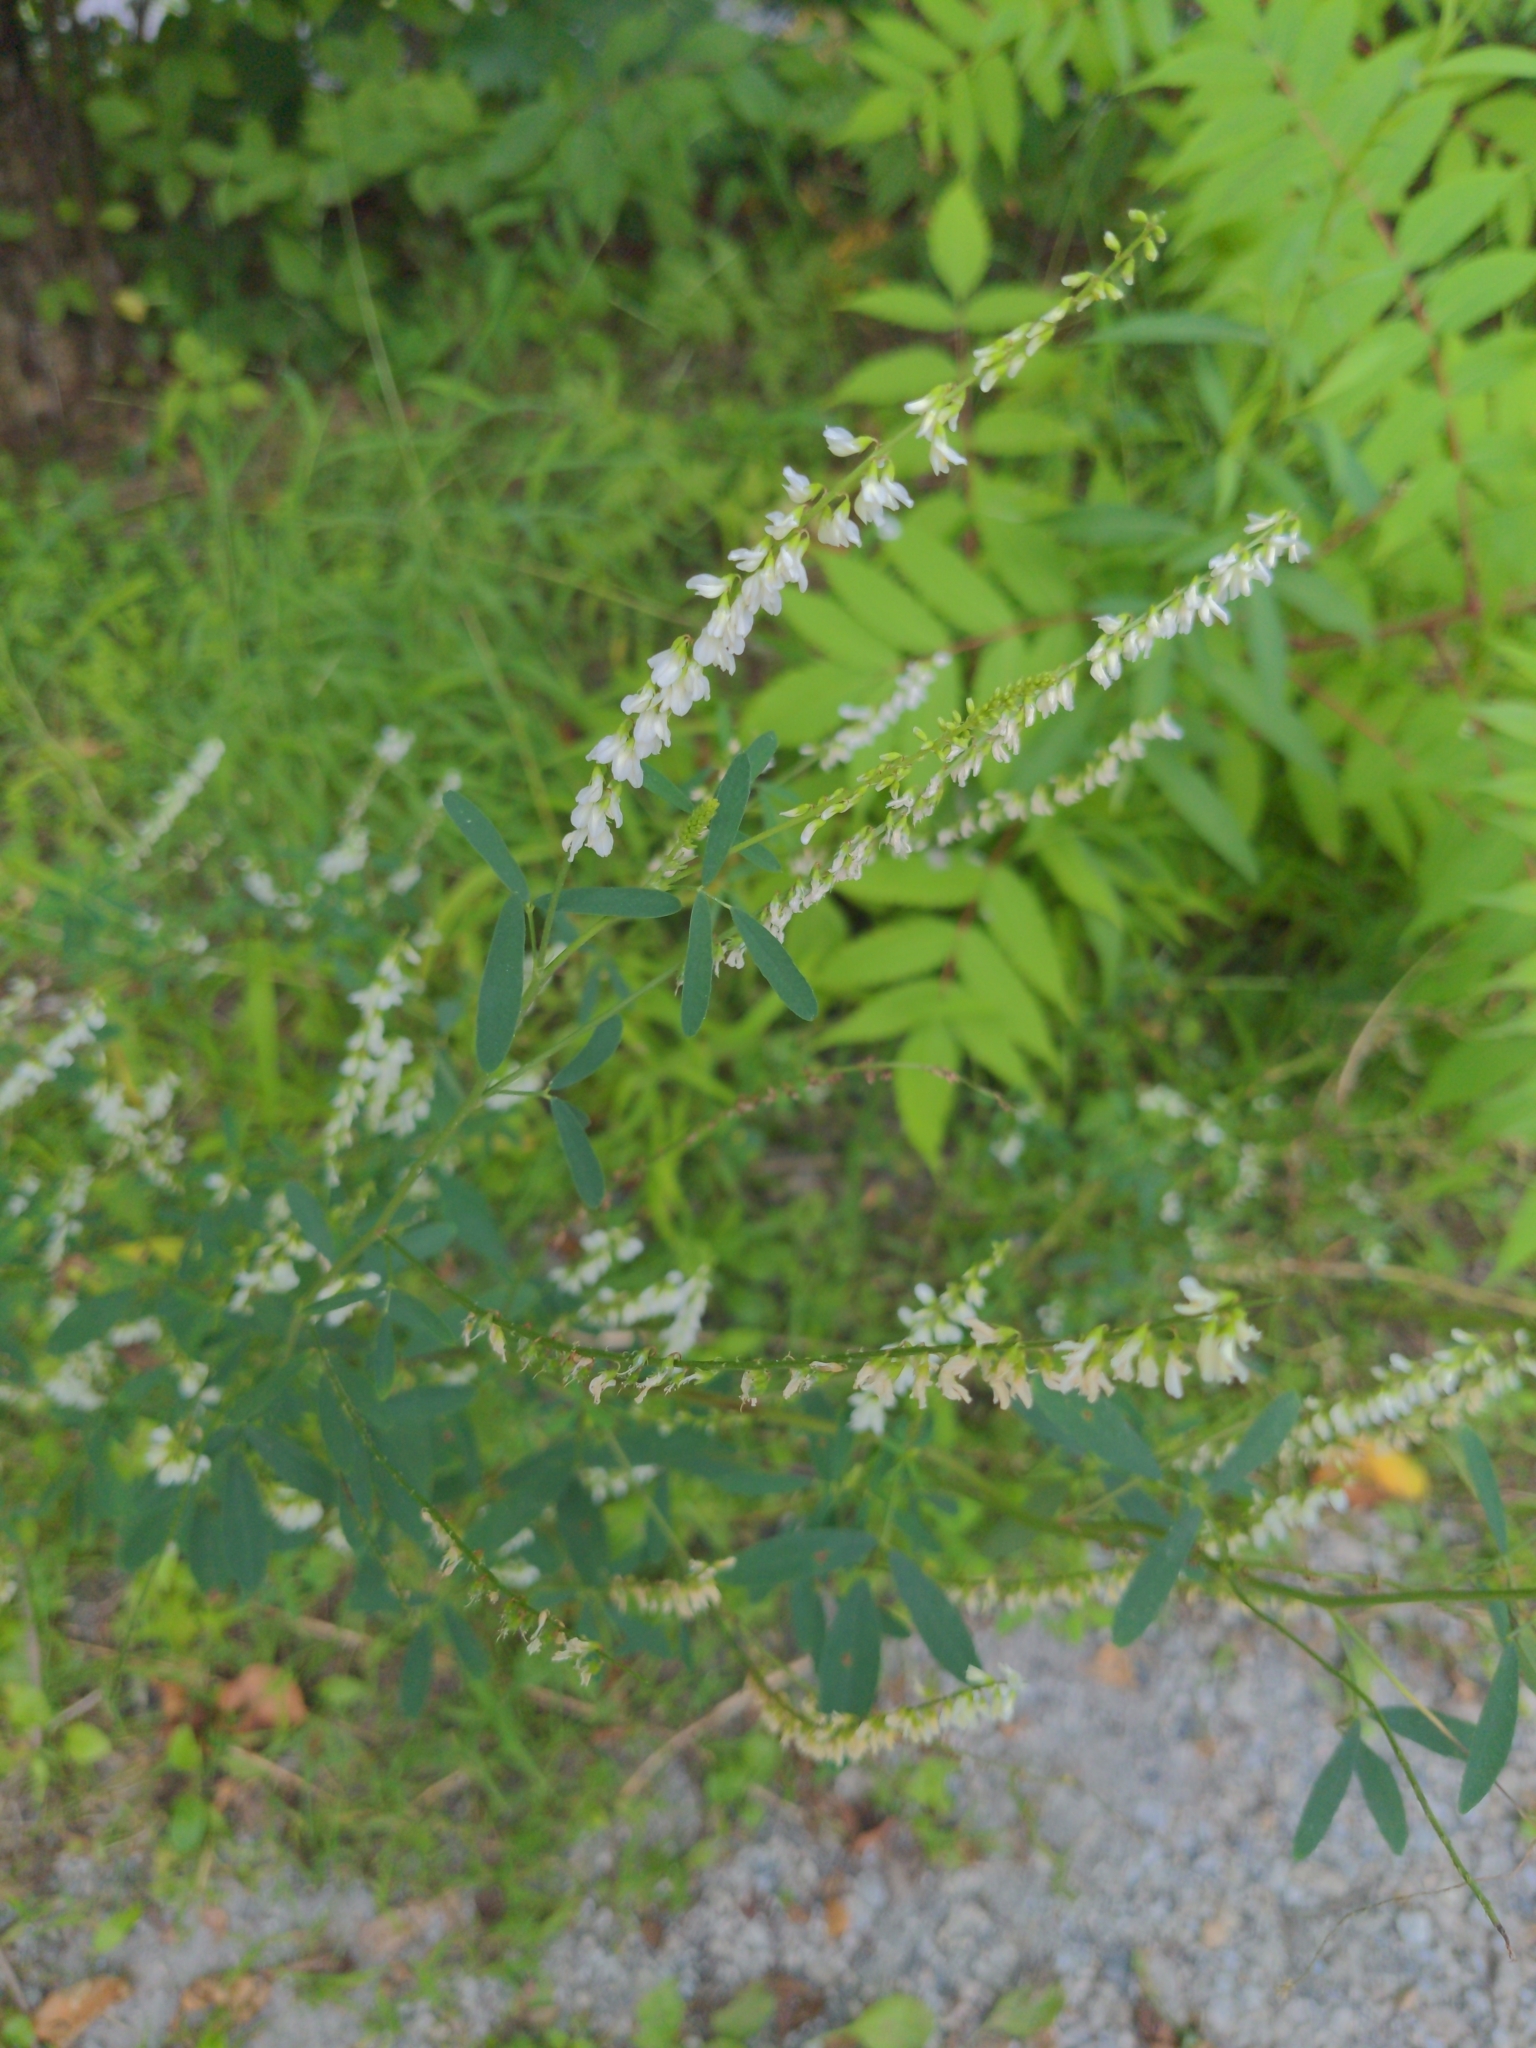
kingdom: Plantae
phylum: Tracheophyta
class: Magnoliopsida
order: Fabales
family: Fabaceae
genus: Melilotus
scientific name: Melilotus albus
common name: White melilot
